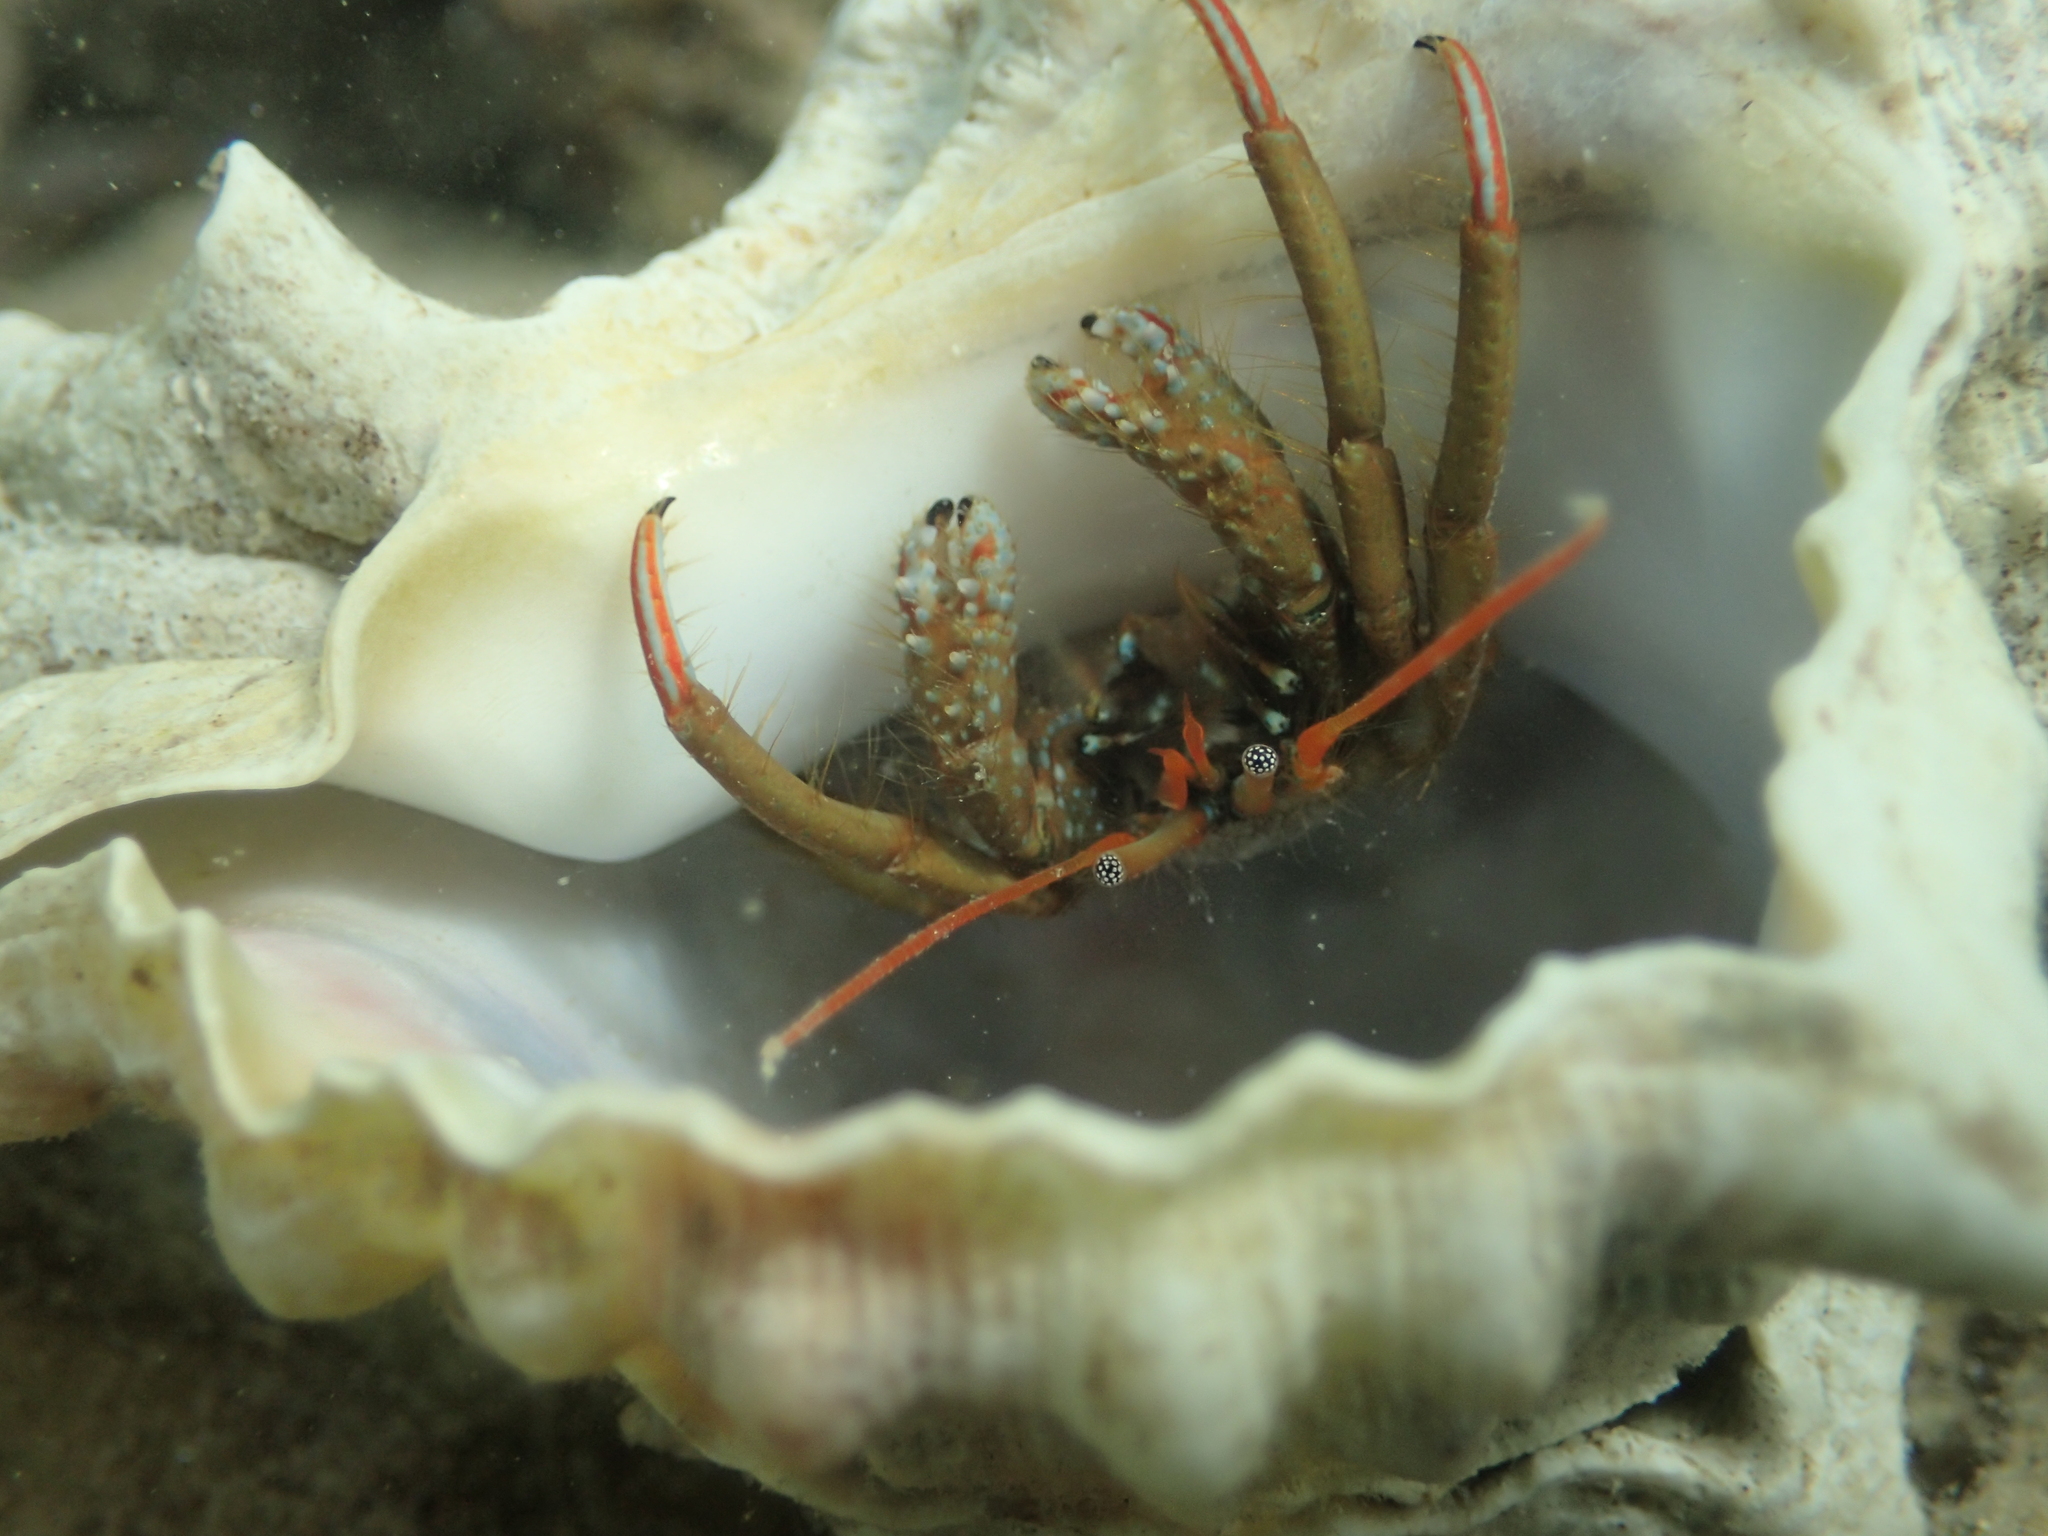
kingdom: Animalia
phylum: Arthropoda
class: Malacostraca
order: Decapoda
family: Diogenidae
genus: Clibanarius
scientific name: Clibanarius erythropus
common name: Hermit crab
